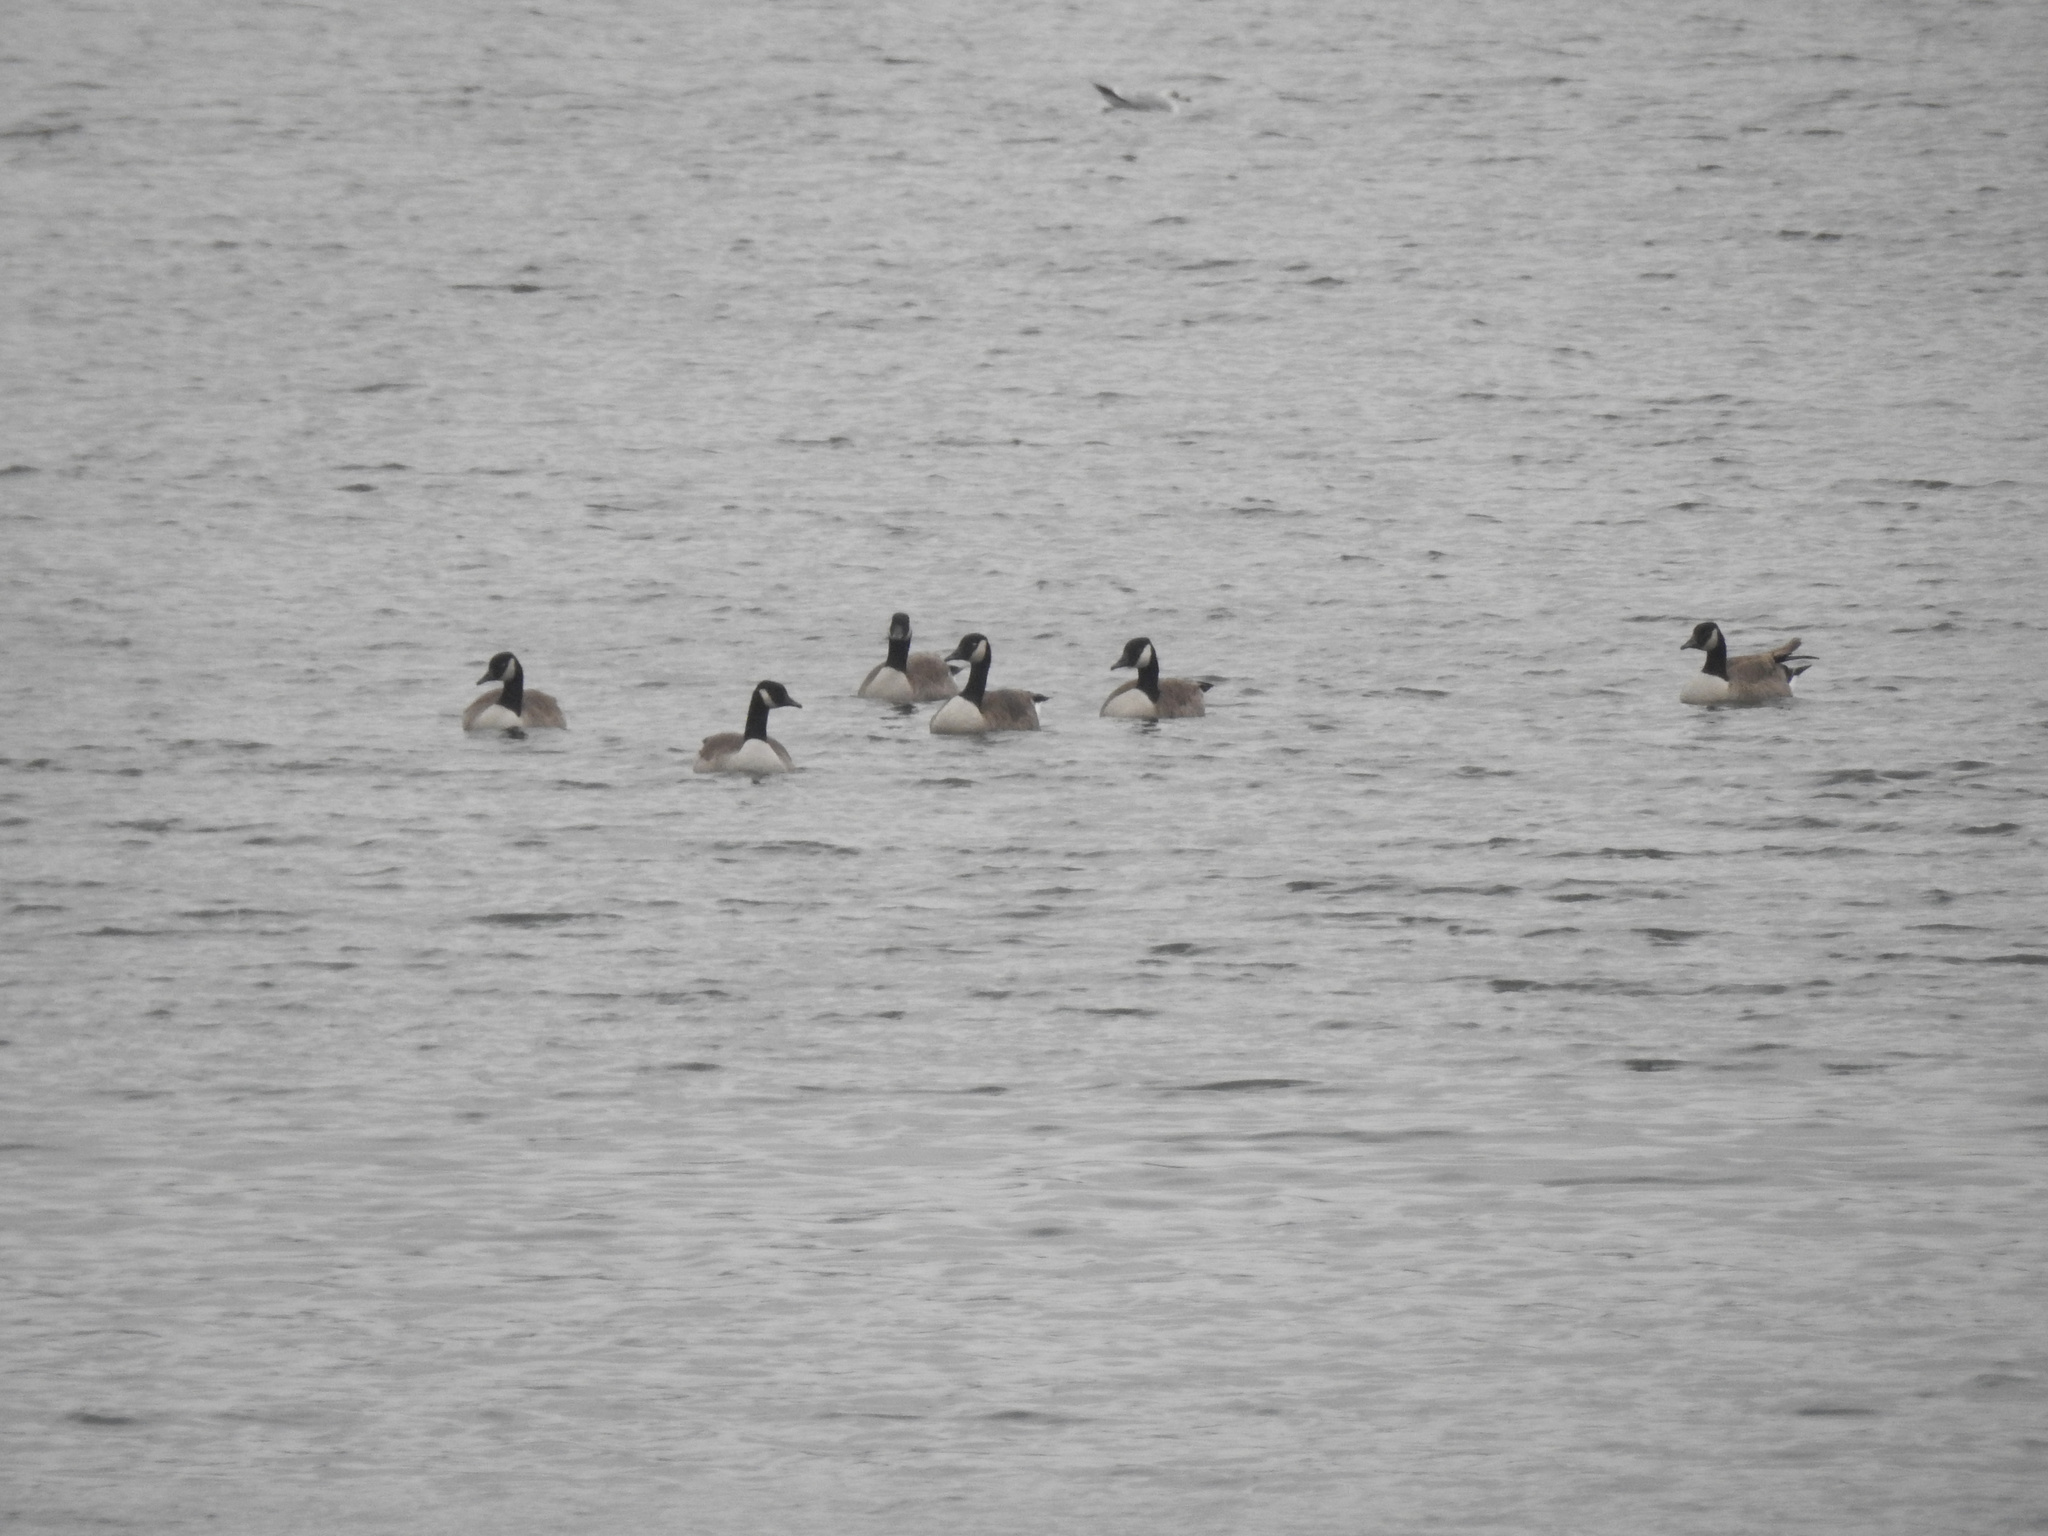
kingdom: Animalia
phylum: Chordata
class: Aves
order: Anseriformes
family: Anatidae
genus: Branta
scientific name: Branta canadensis
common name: Canada goose
